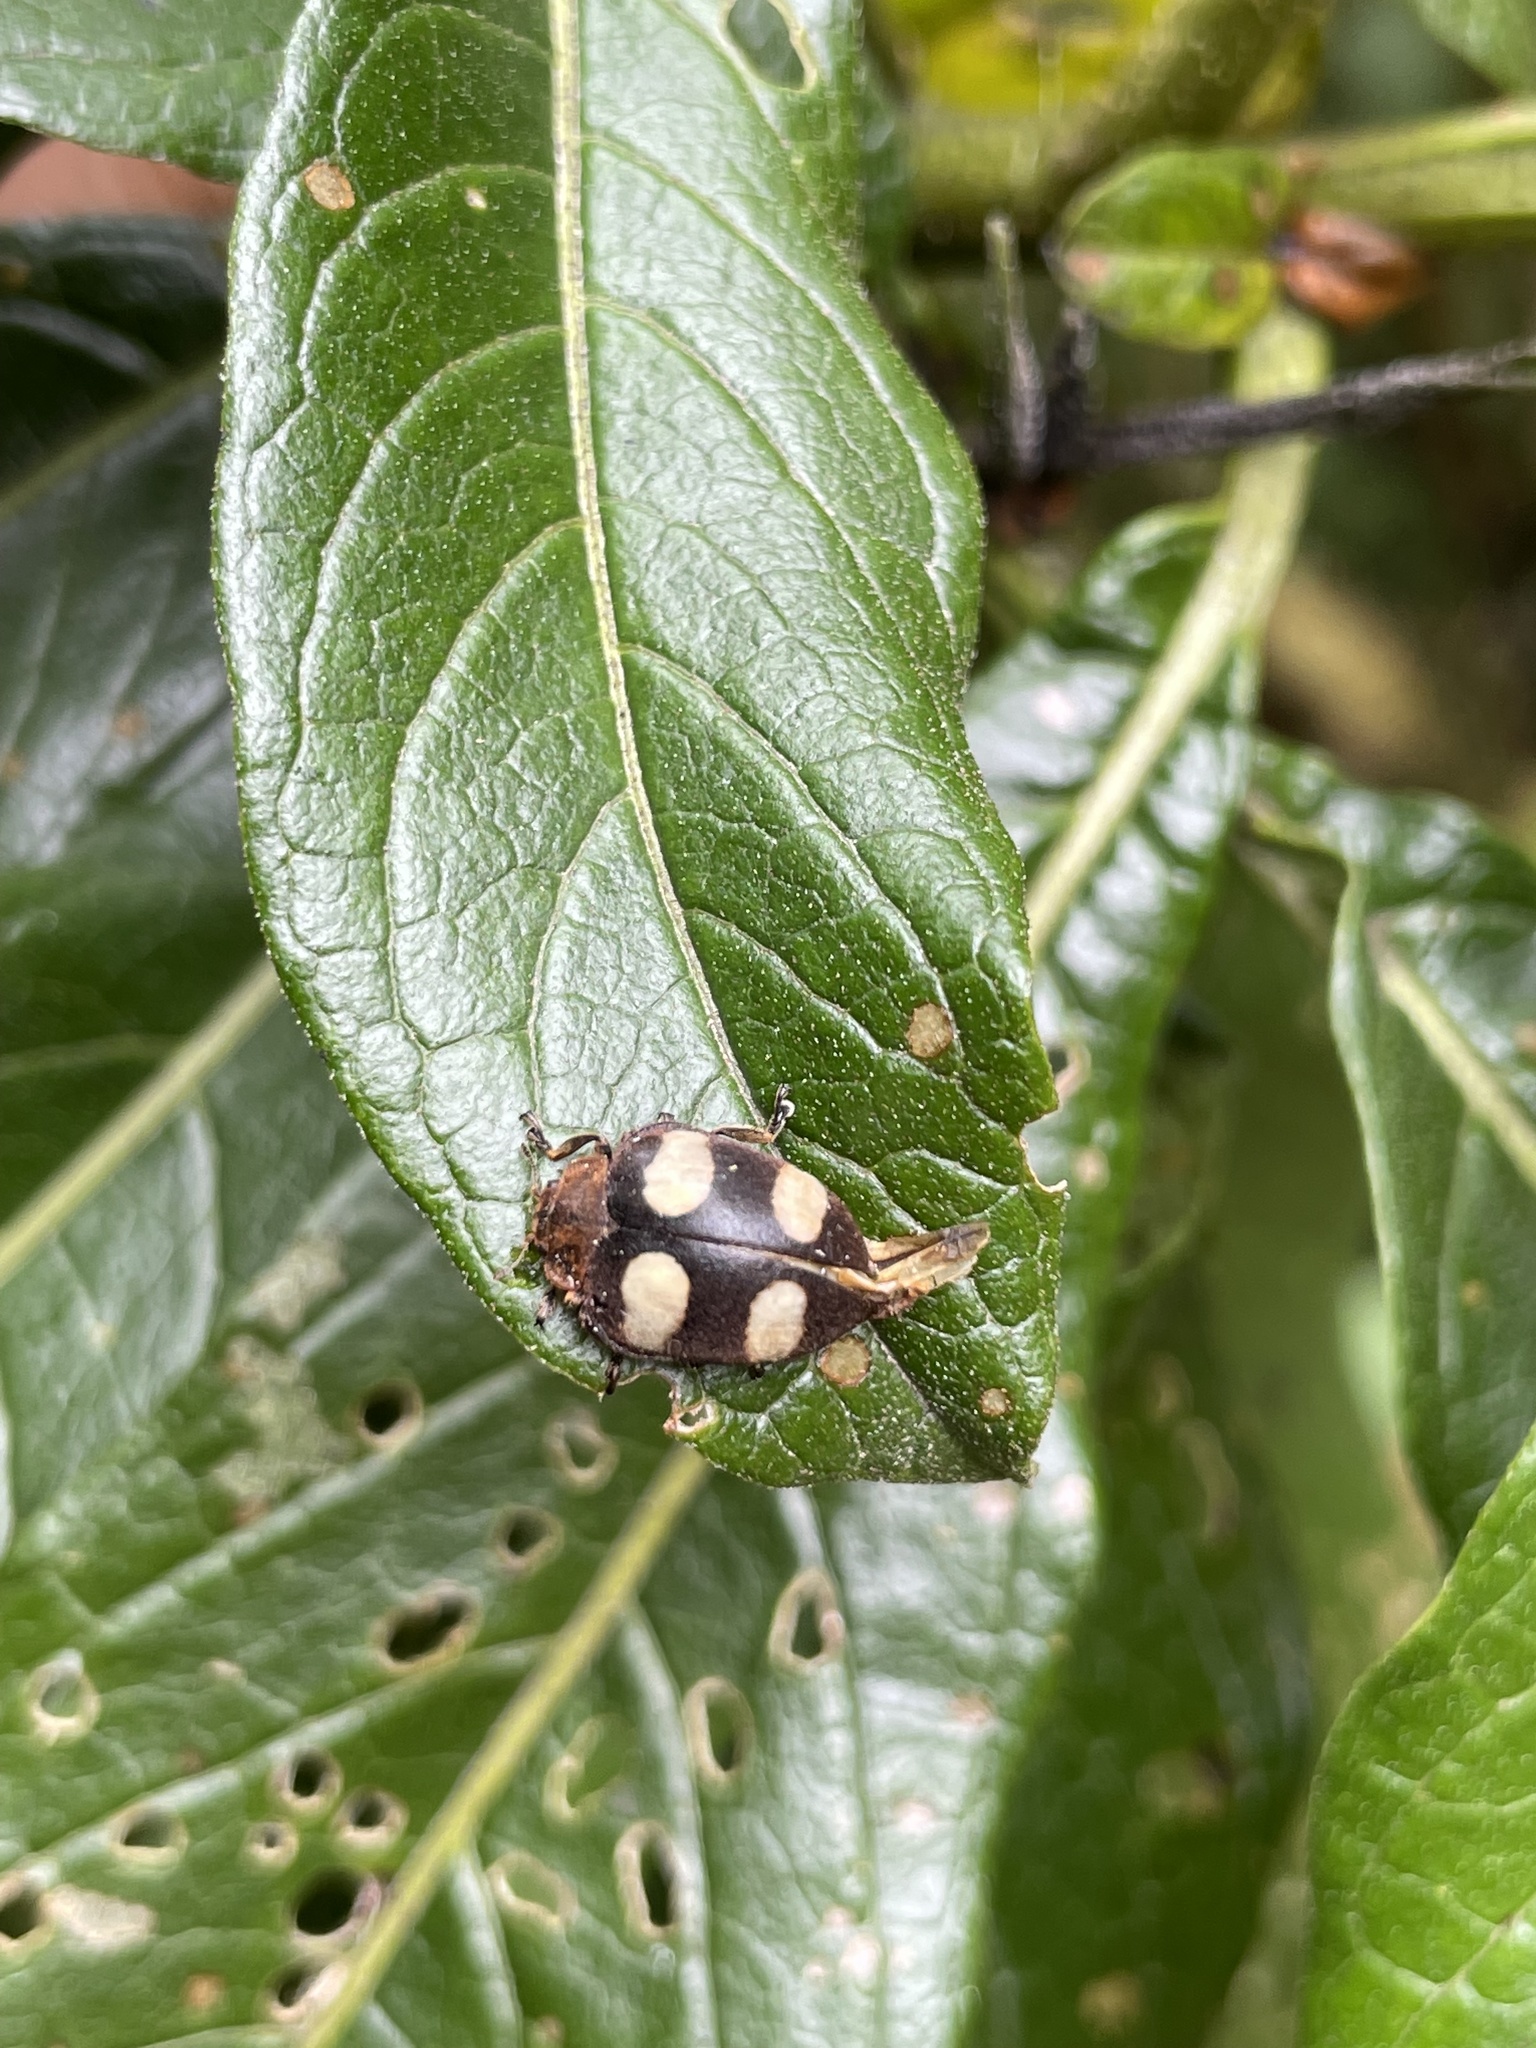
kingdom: Animalia
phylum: Arthropoda
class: Insecta
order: Coleoptera
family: Coccinellidae
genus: Epilachna
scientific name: Epilachna
